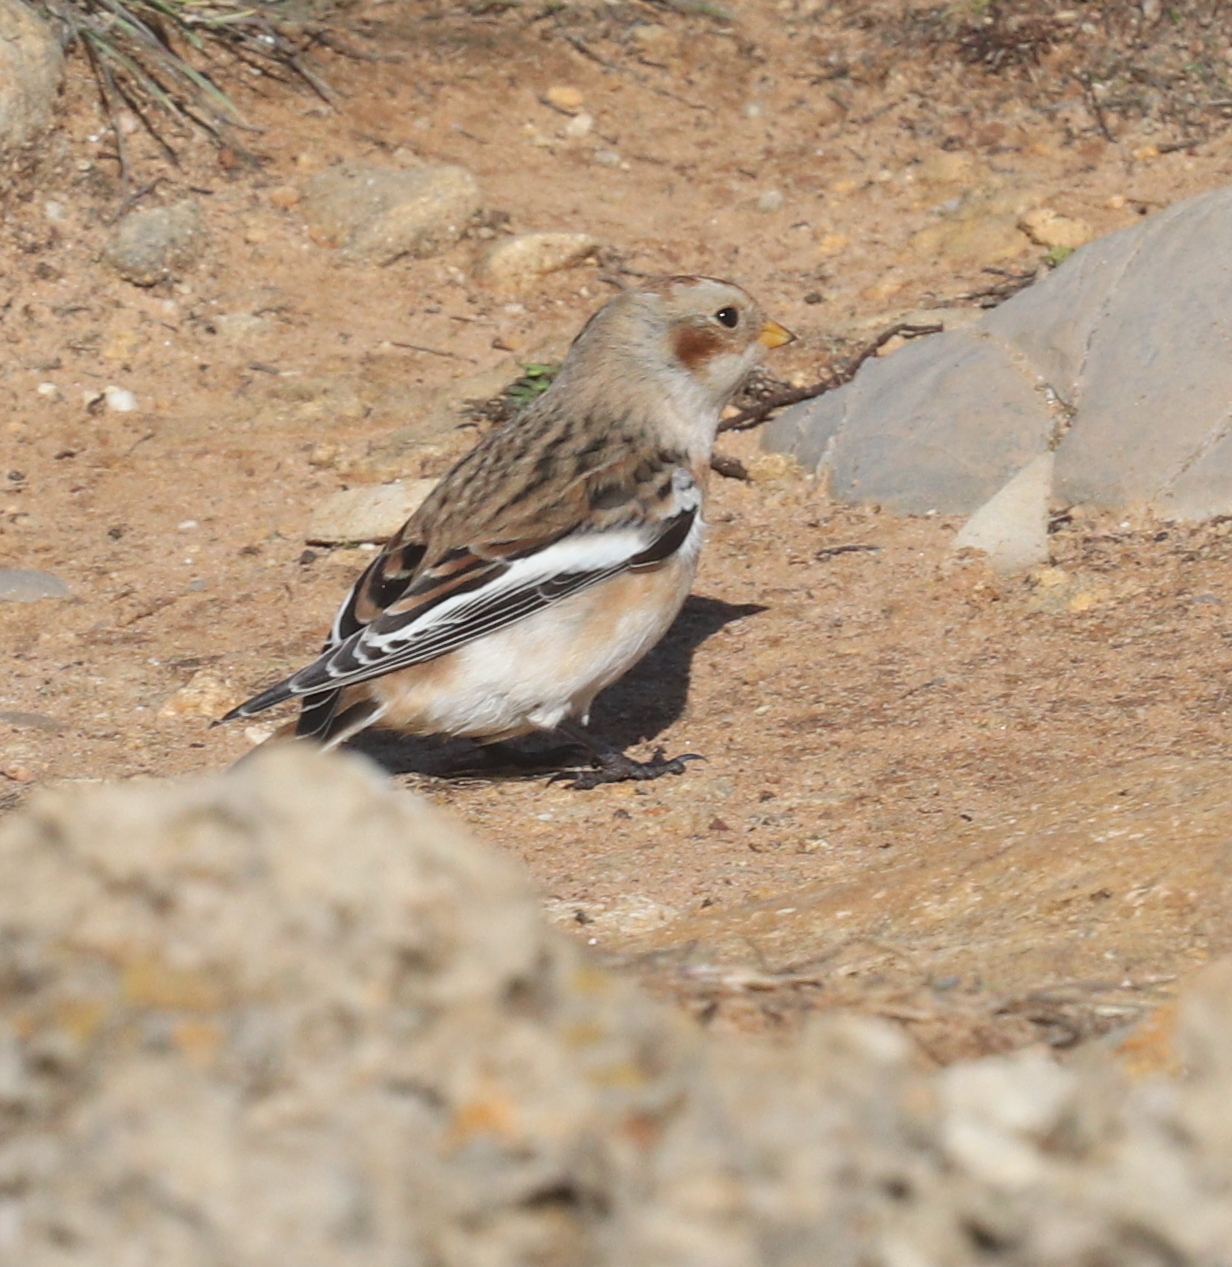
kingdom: Animalia
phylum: Chordata
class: Aves
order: Passeriformes
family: Calcariidae
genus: Plectrophenax
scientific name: Plectrophenax nivalis
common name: Snow bunting
